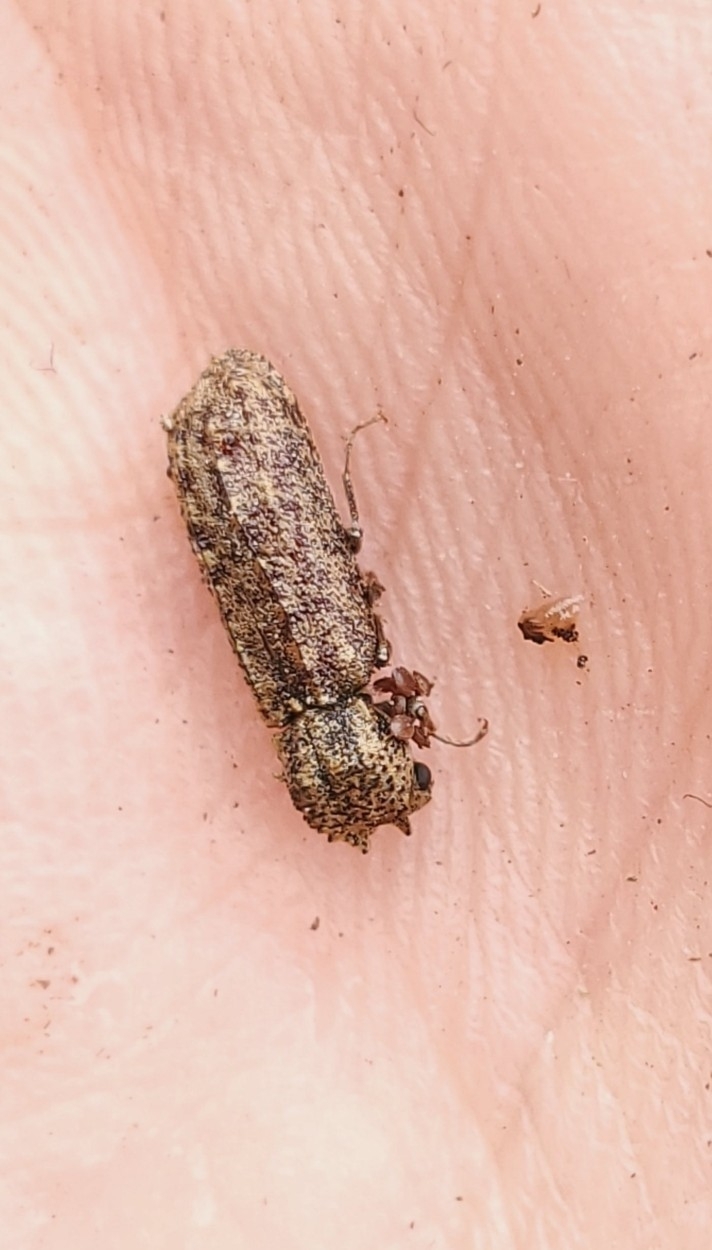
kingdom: Animalia
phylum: Arthropoda
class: Insecta
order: Coleoptera
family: Bostrichidae
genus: Lichenophanes
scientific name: Lichenophanes bicornis
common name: Two-horned powder-post beetle
